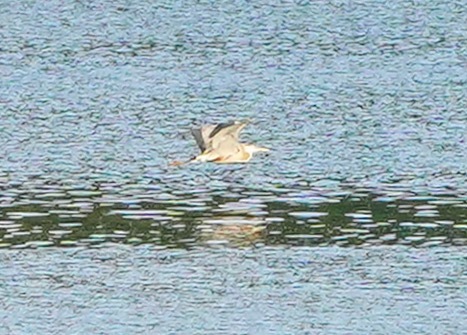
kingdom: Animalia
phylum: Chordata
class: Aves
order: Pelecaniformes
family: Ardeidae
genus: Ardea
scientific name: Ardea herodias
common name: Great blue heron
